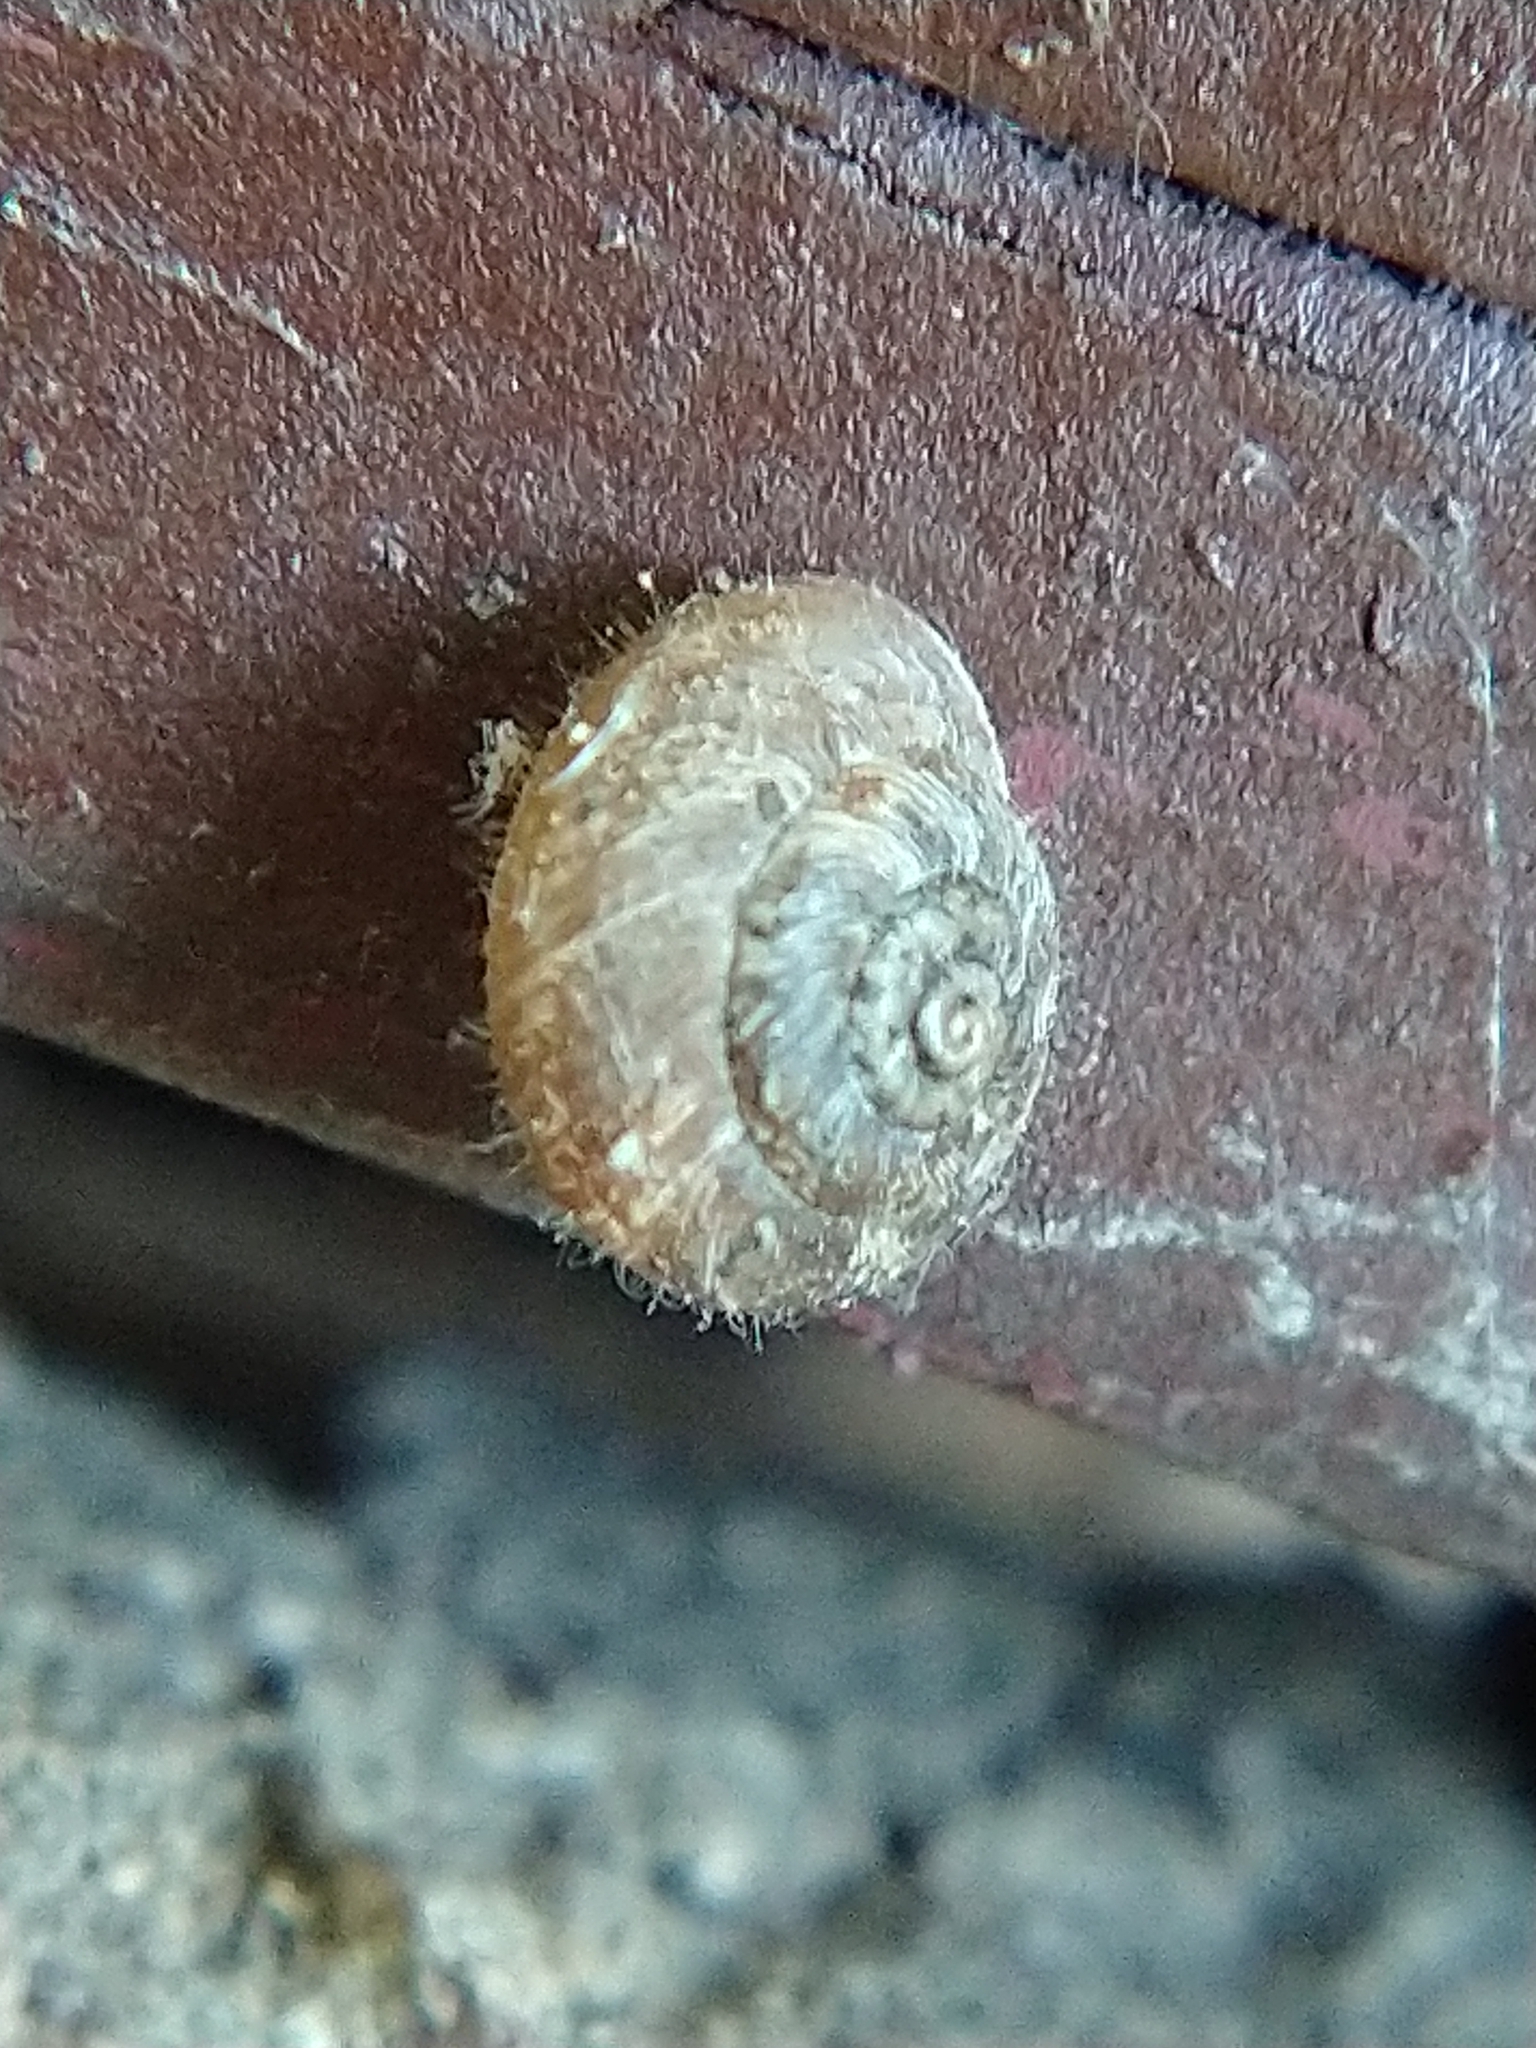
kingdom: Animalia
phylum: Mollusca
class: Gastropoda
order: Stylommatophora
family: Geomitridae
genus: Xerotricha
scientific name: Xerotricha conspurcata
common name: Snail
